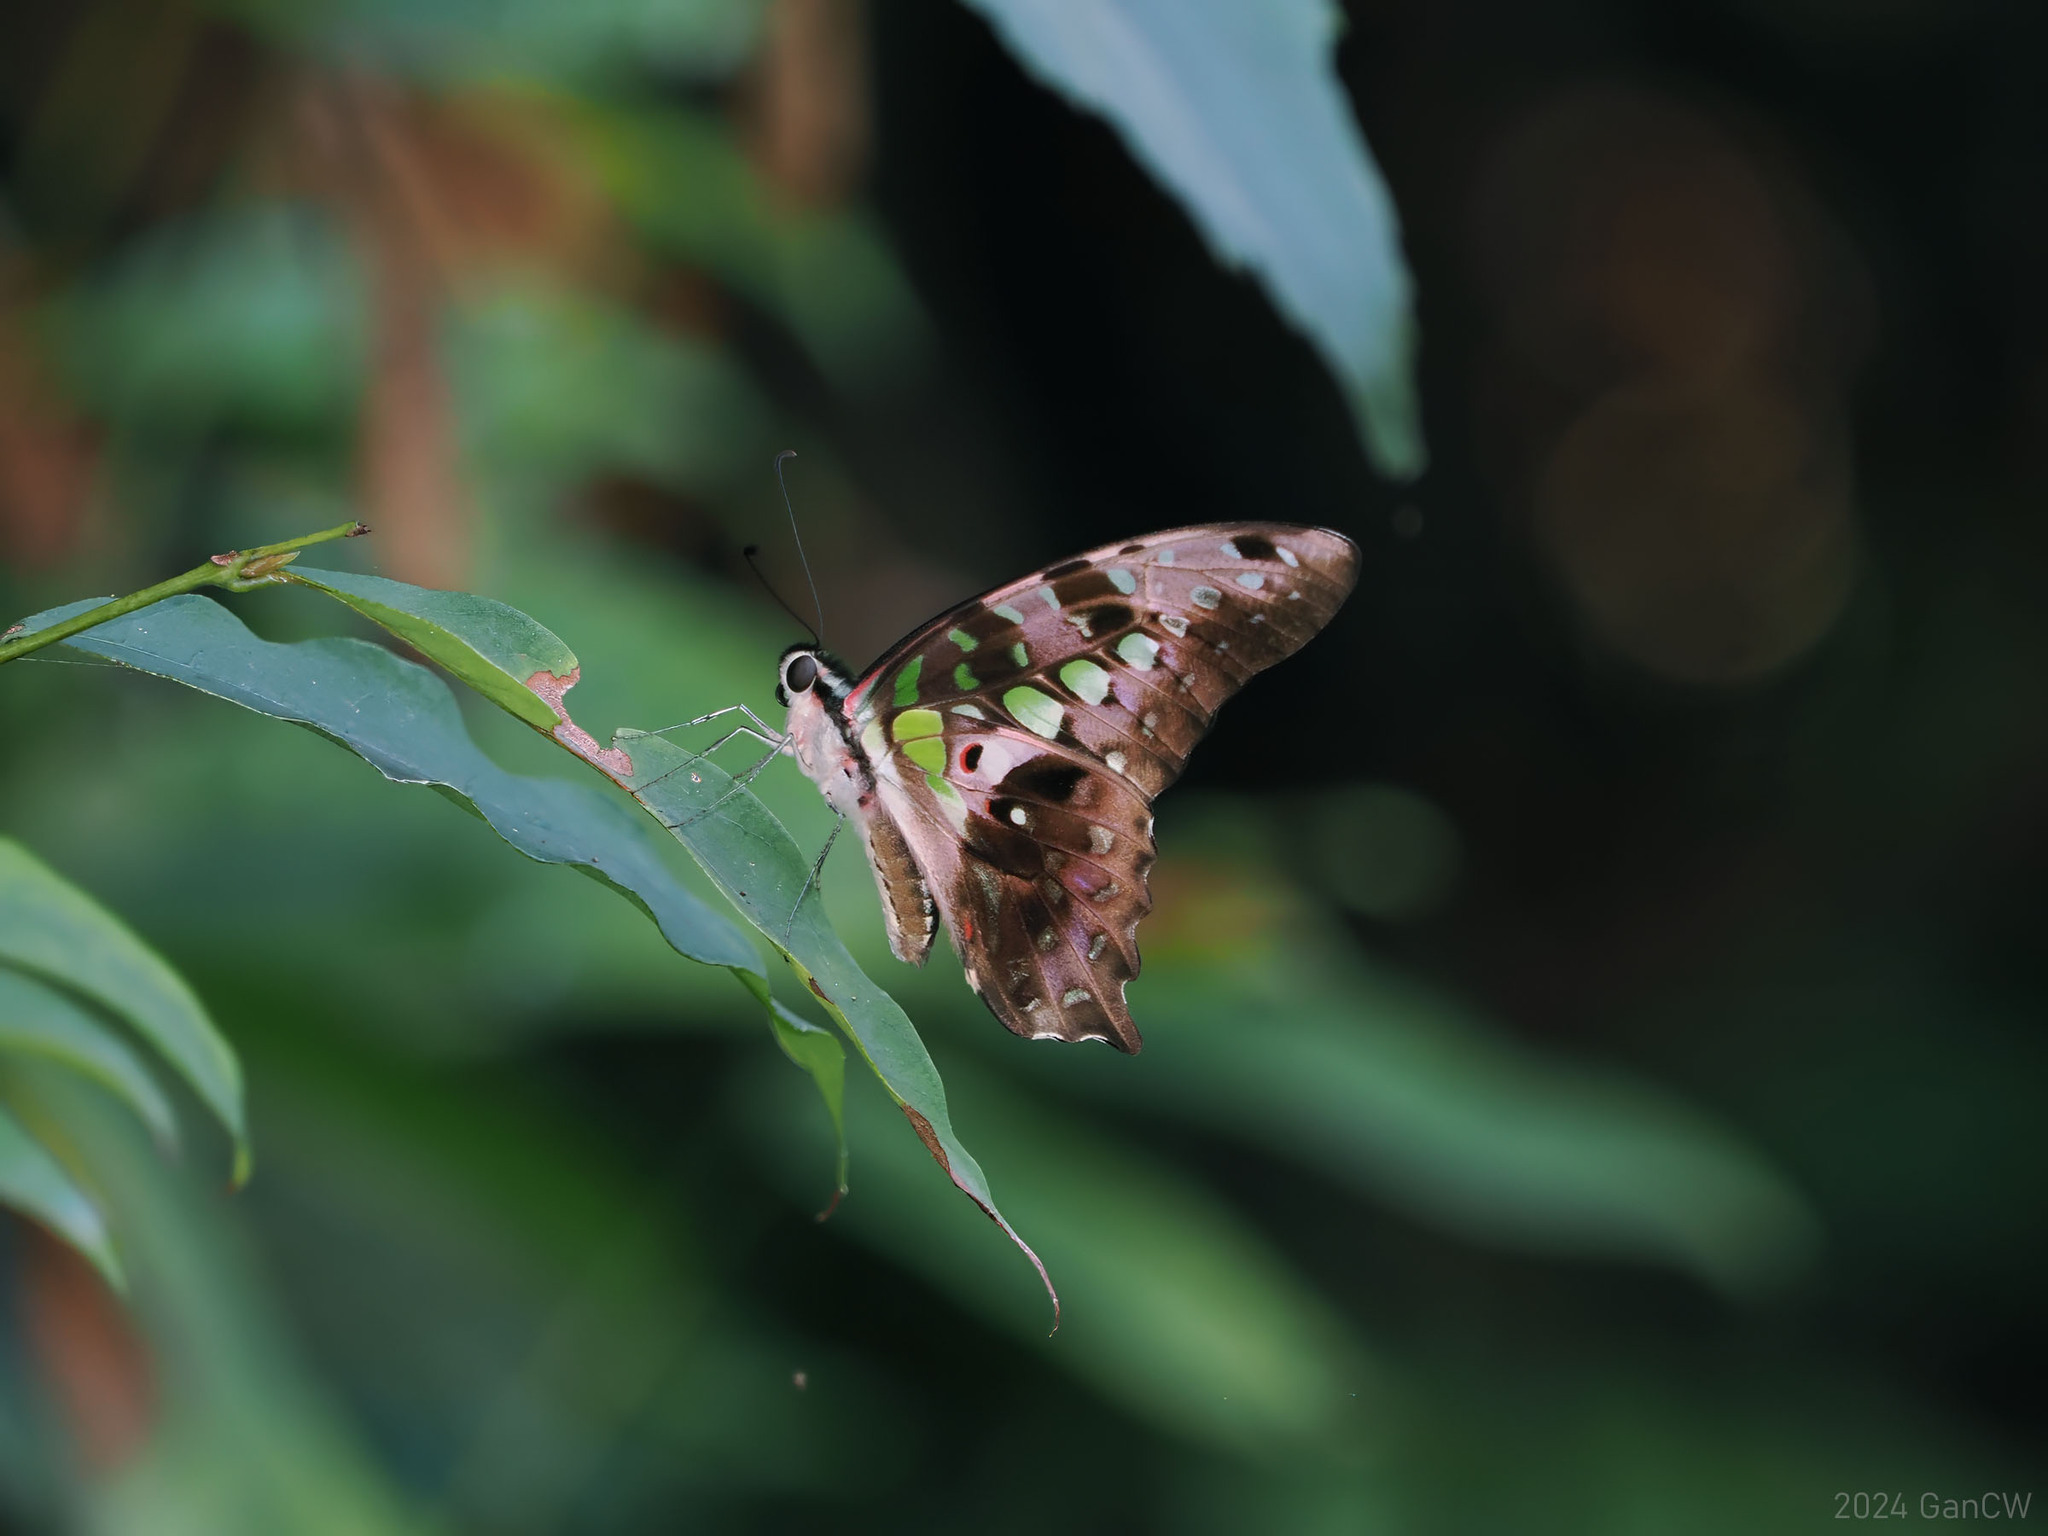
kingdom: Animalia
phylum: Arthropoda
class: Insecta
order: Lepidoptera
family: Papilionidae
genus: Graphium
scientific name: Graphium agamemnon
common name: Tailed jay
